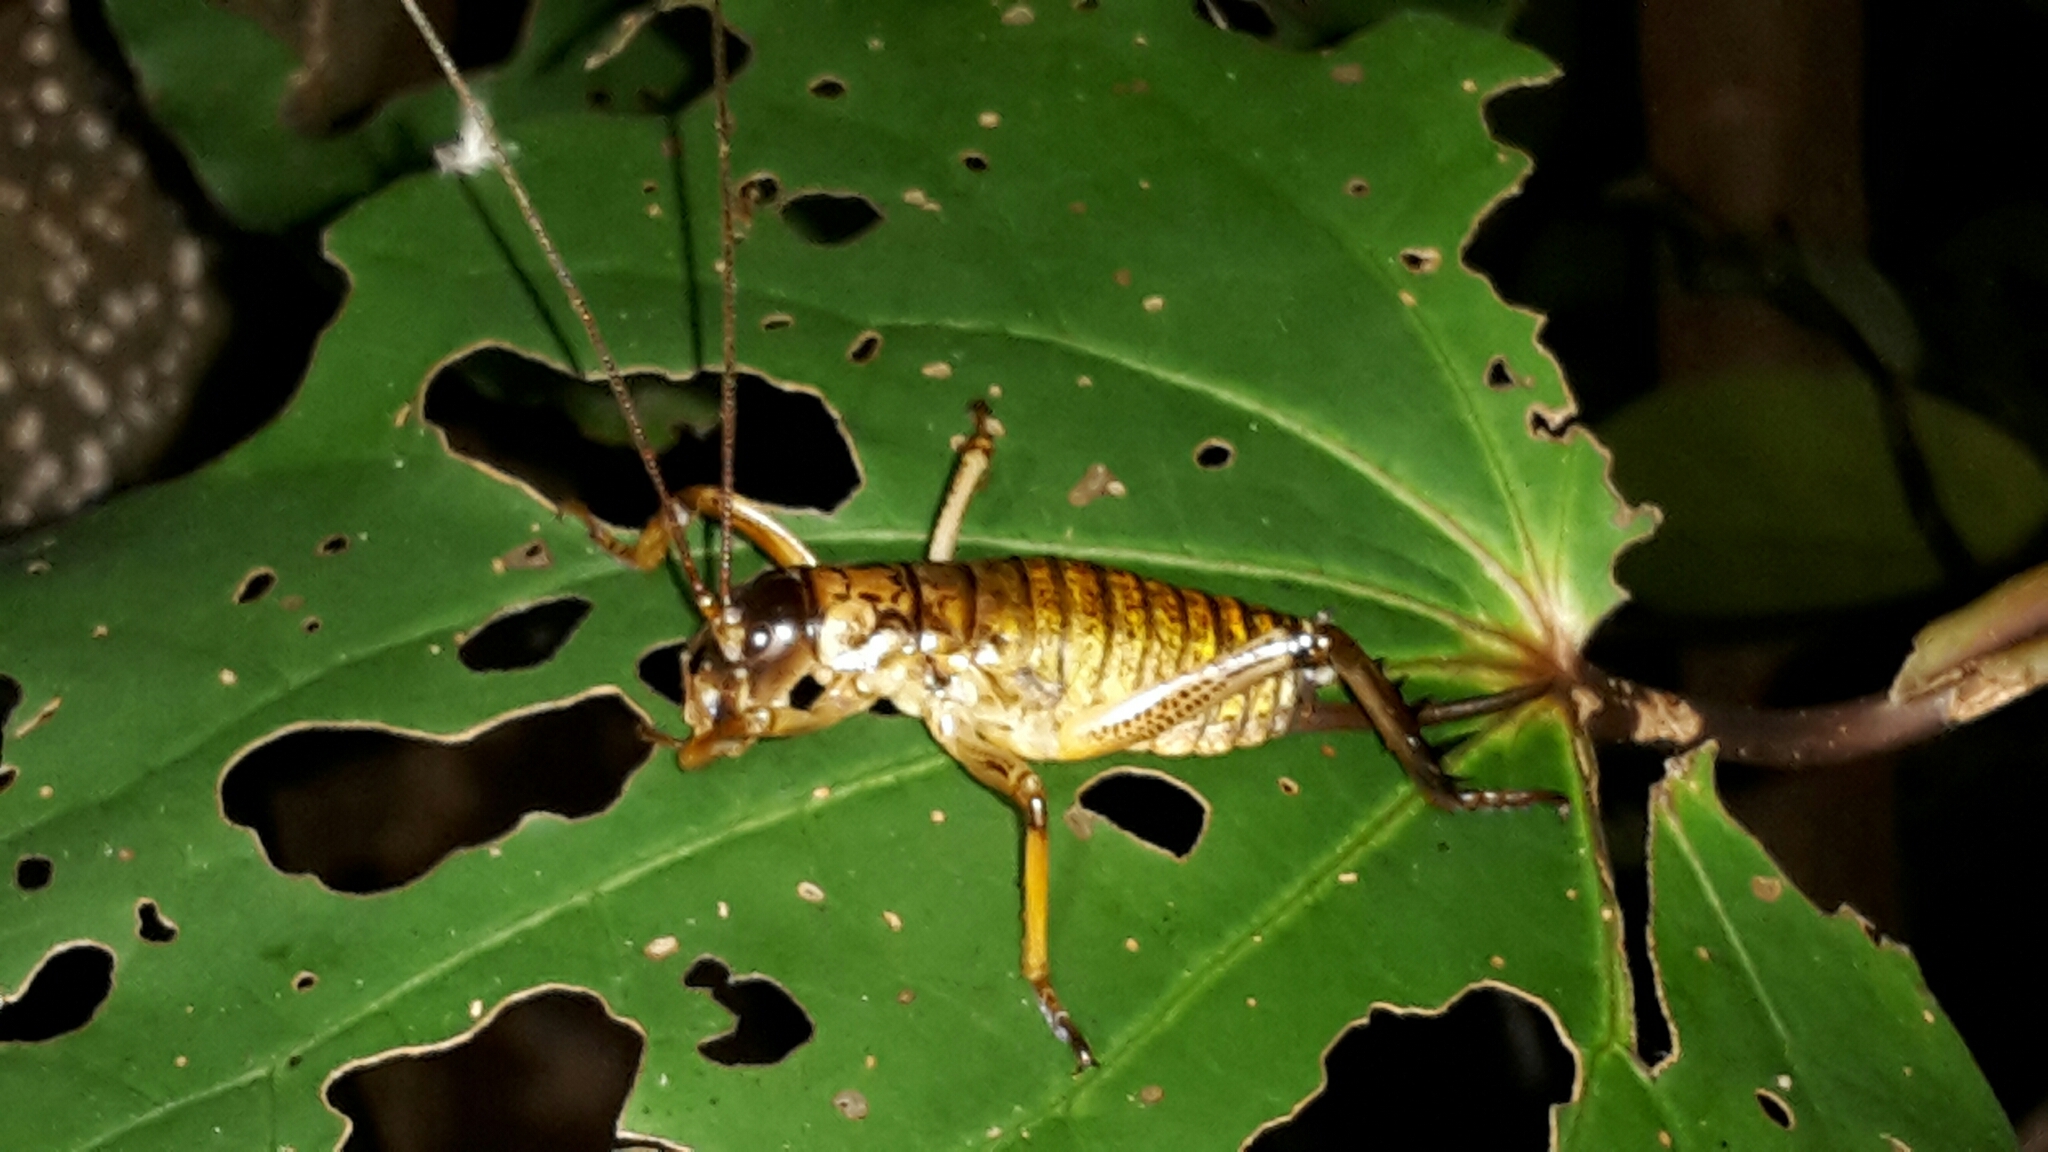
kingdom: Animalia
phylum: Arthropoda
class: Insecta
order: Orthoptera
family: Anostostomatidae
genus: Hemideina
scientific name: Hemideina thoracica
